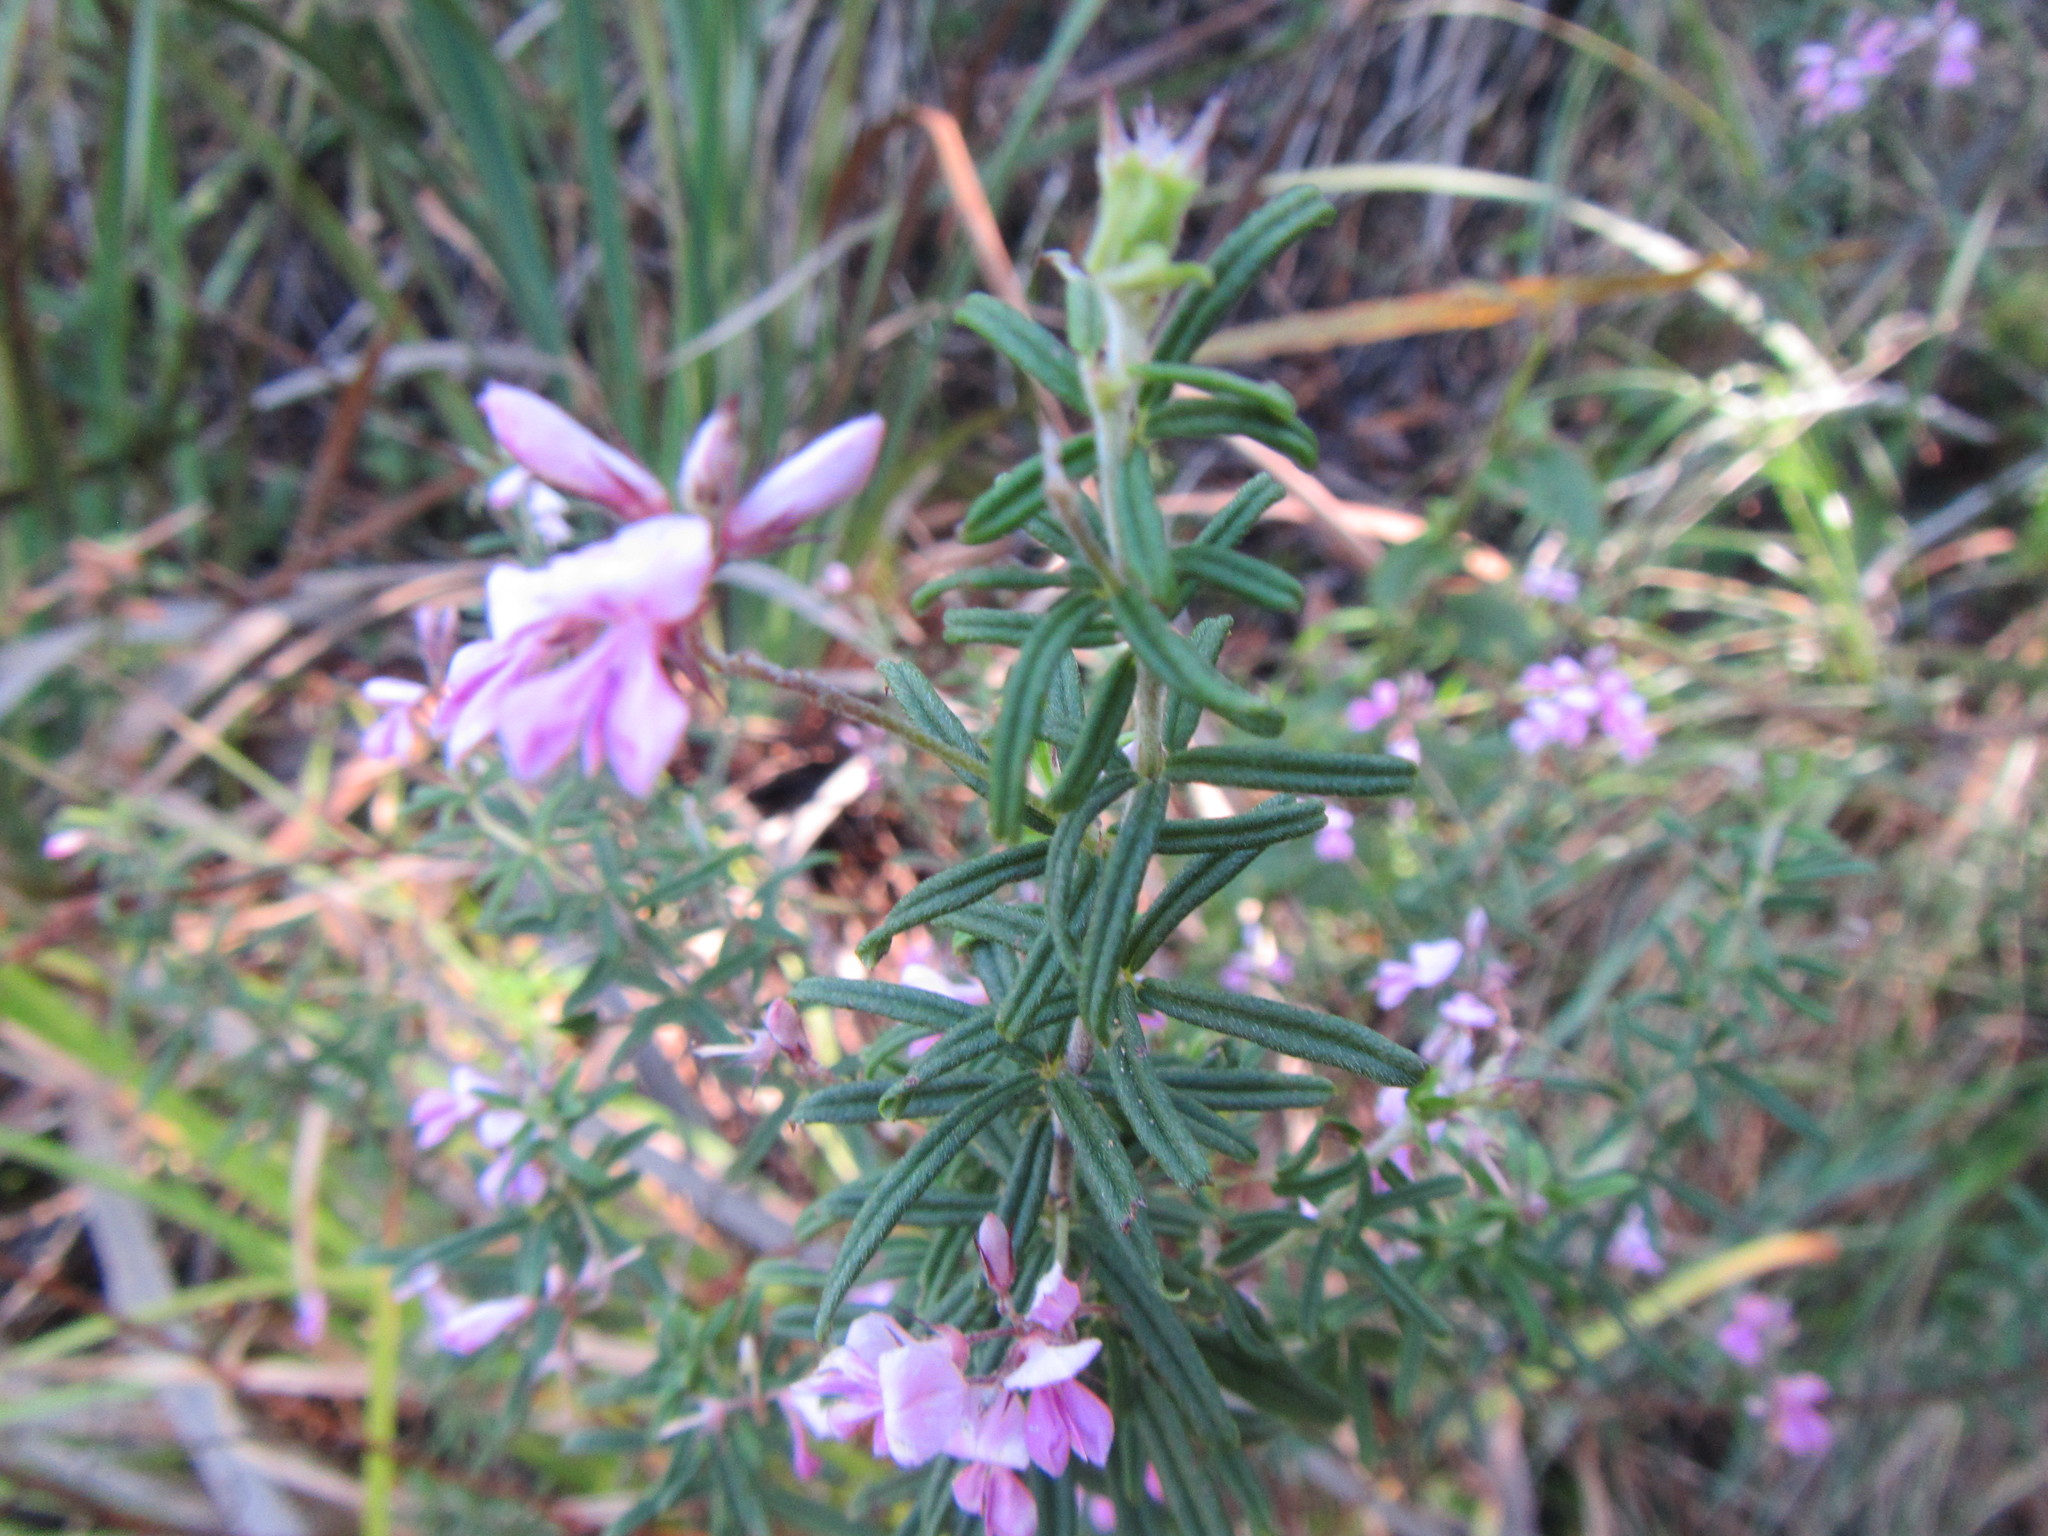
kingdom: Plantae
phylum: Tracheophyta
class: Magnoliopsida
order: Fabales
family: Fabaceae
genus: Indigofera
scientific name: Indigofera filiformis
